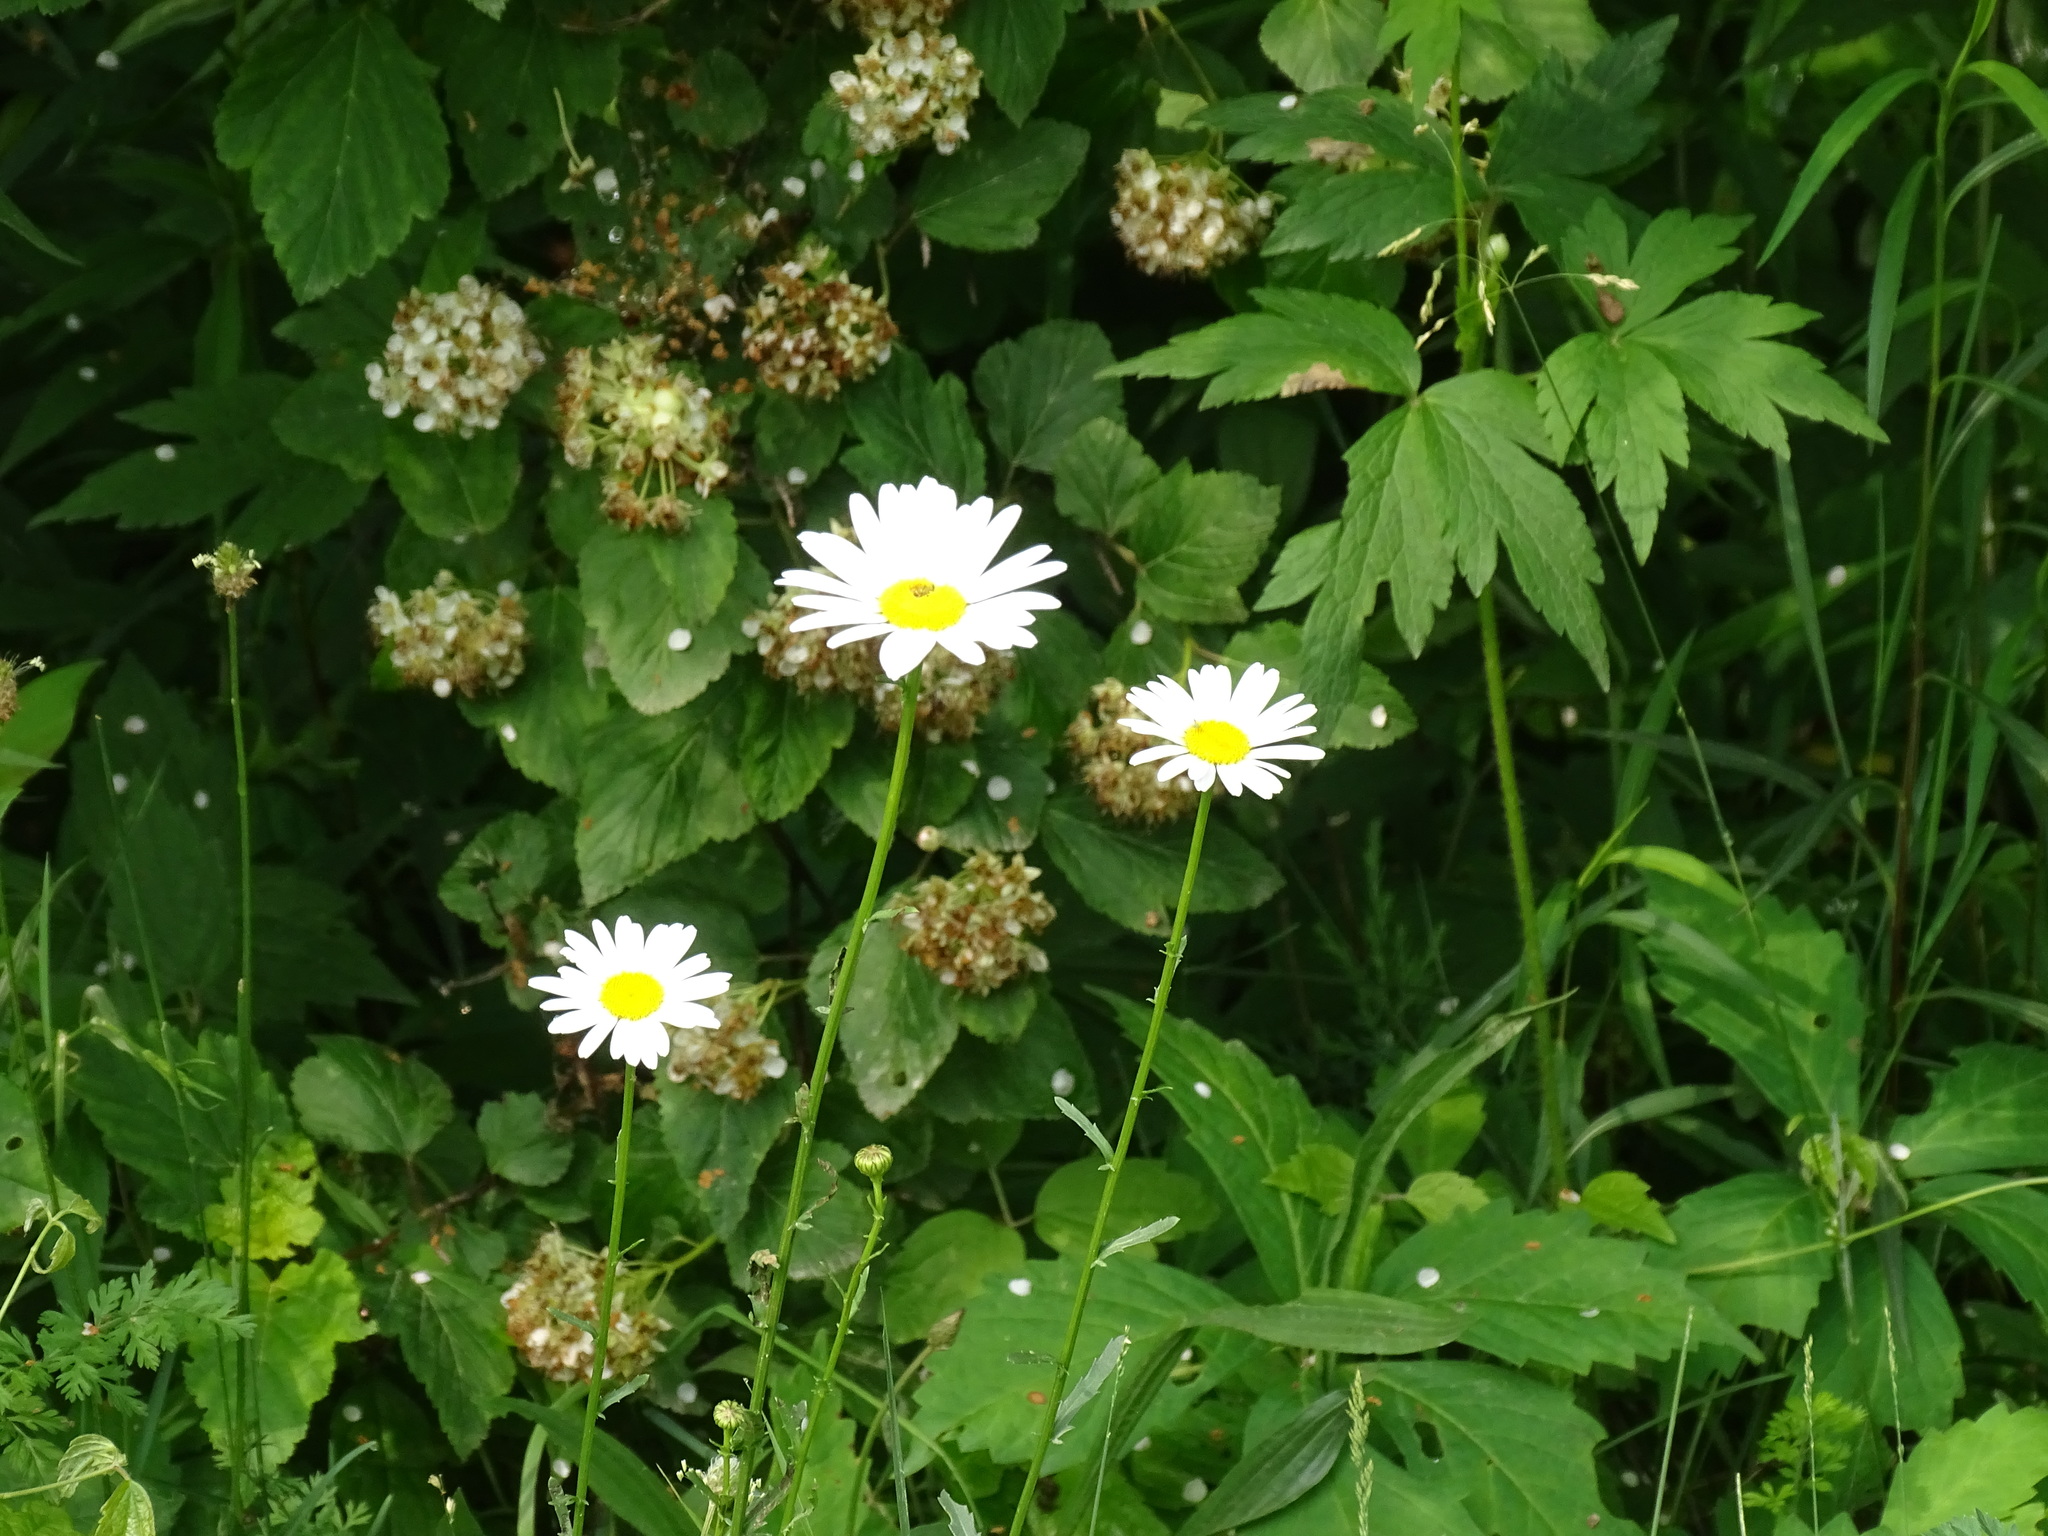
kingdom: Plantae
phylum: Tracheophyta
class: Magnoliopsida
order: Asterales
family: Asteraceae
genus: Leucanthemum
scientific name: Leucanthemum vulgare
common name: Oxeye daisy
